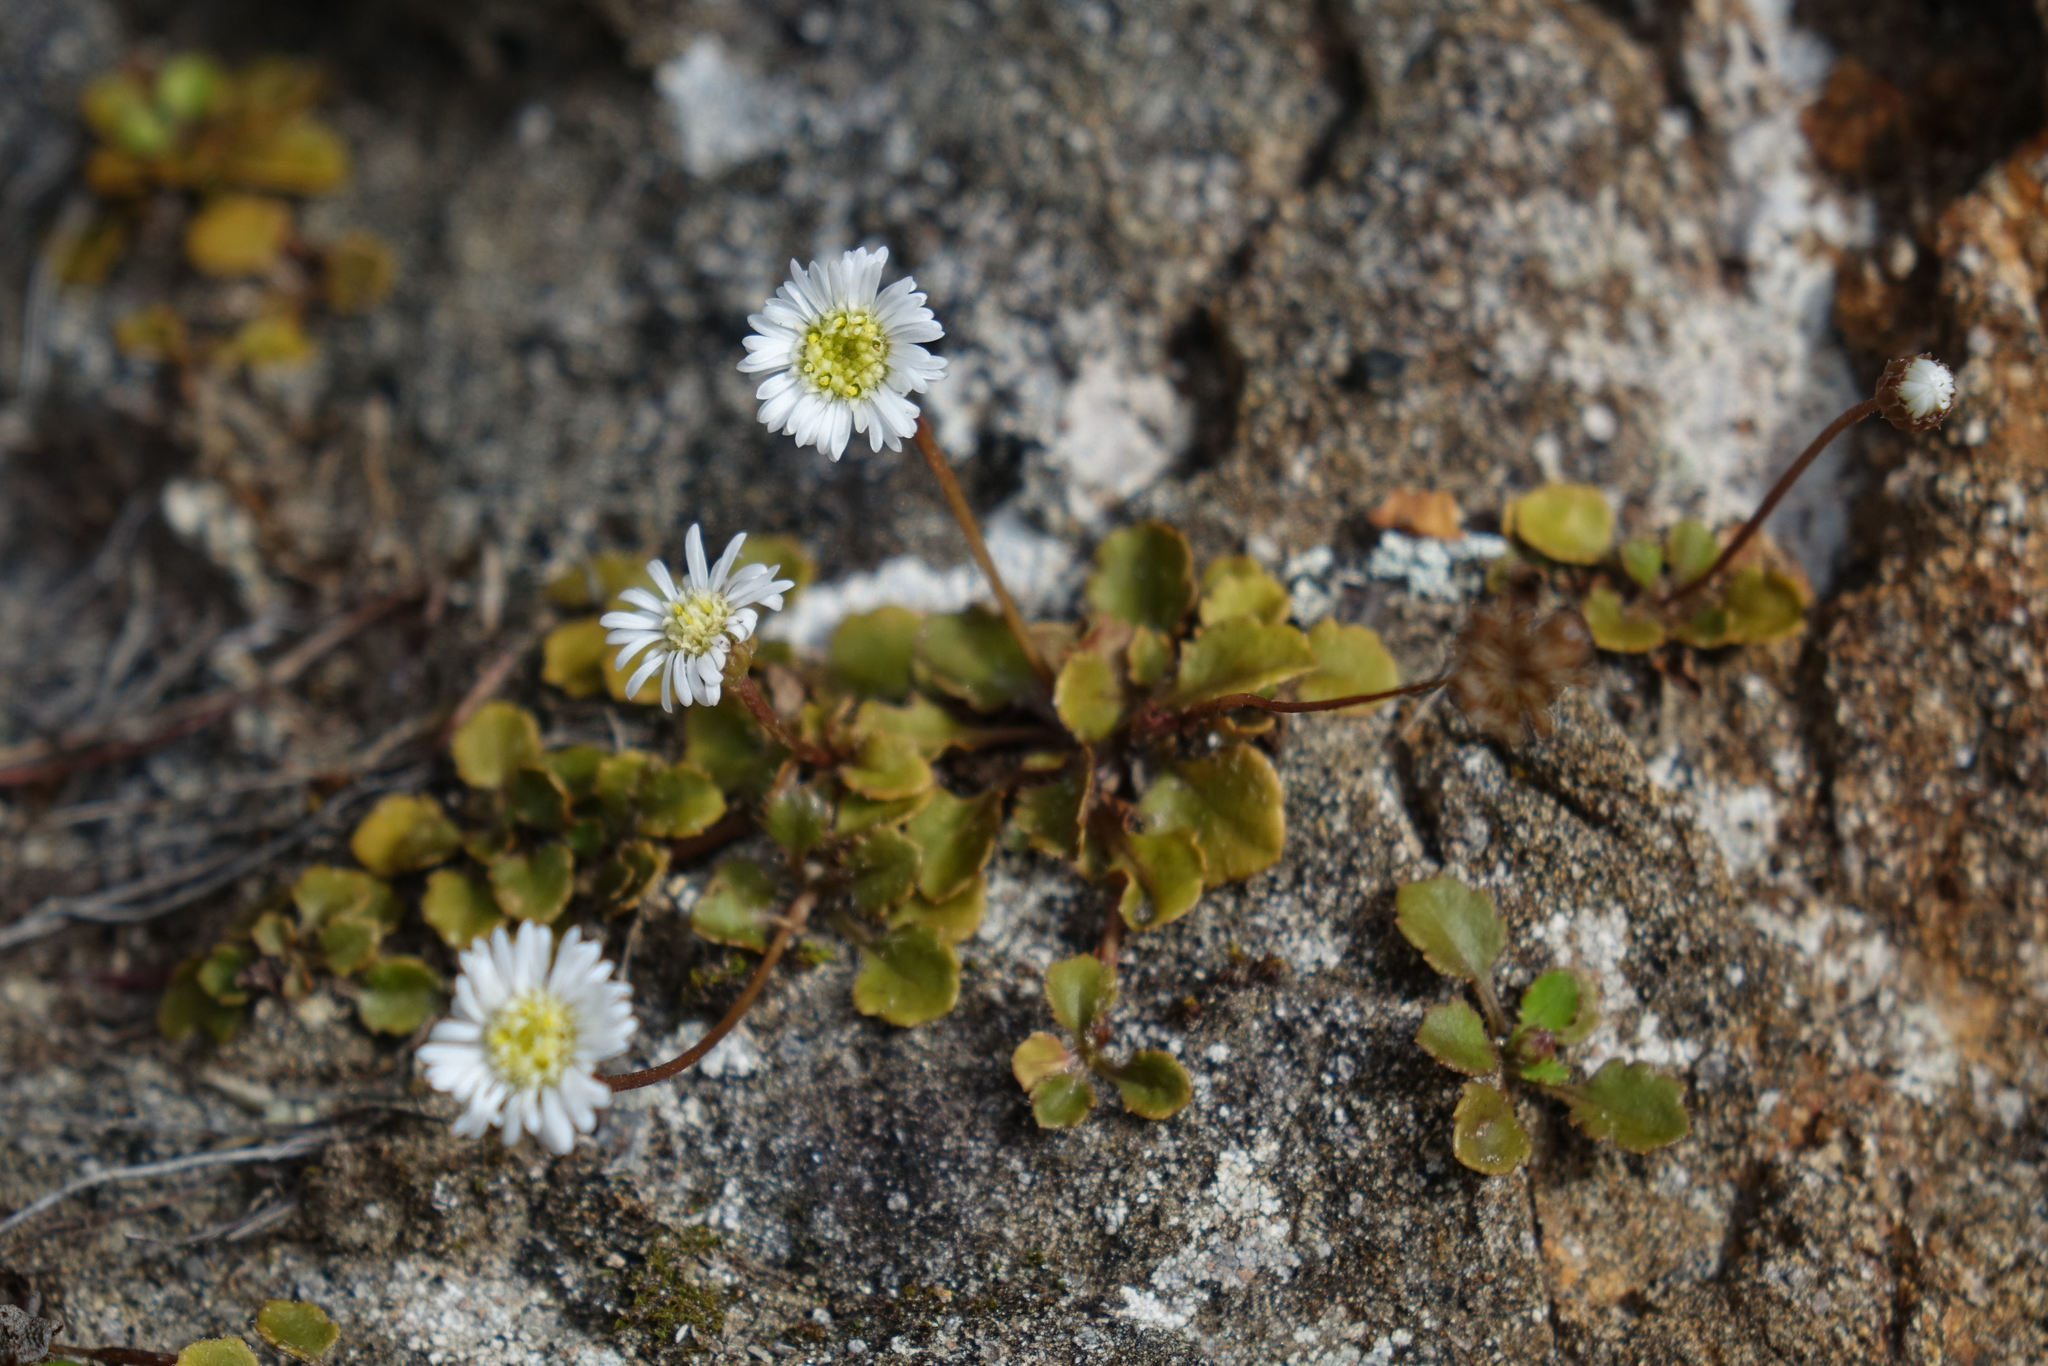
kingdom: Plantae
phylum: Tracheophyta
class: Magnoliopsida
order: Asterales
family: Asteraceae
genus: Lagenophora
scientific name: Lagenophora pumila
